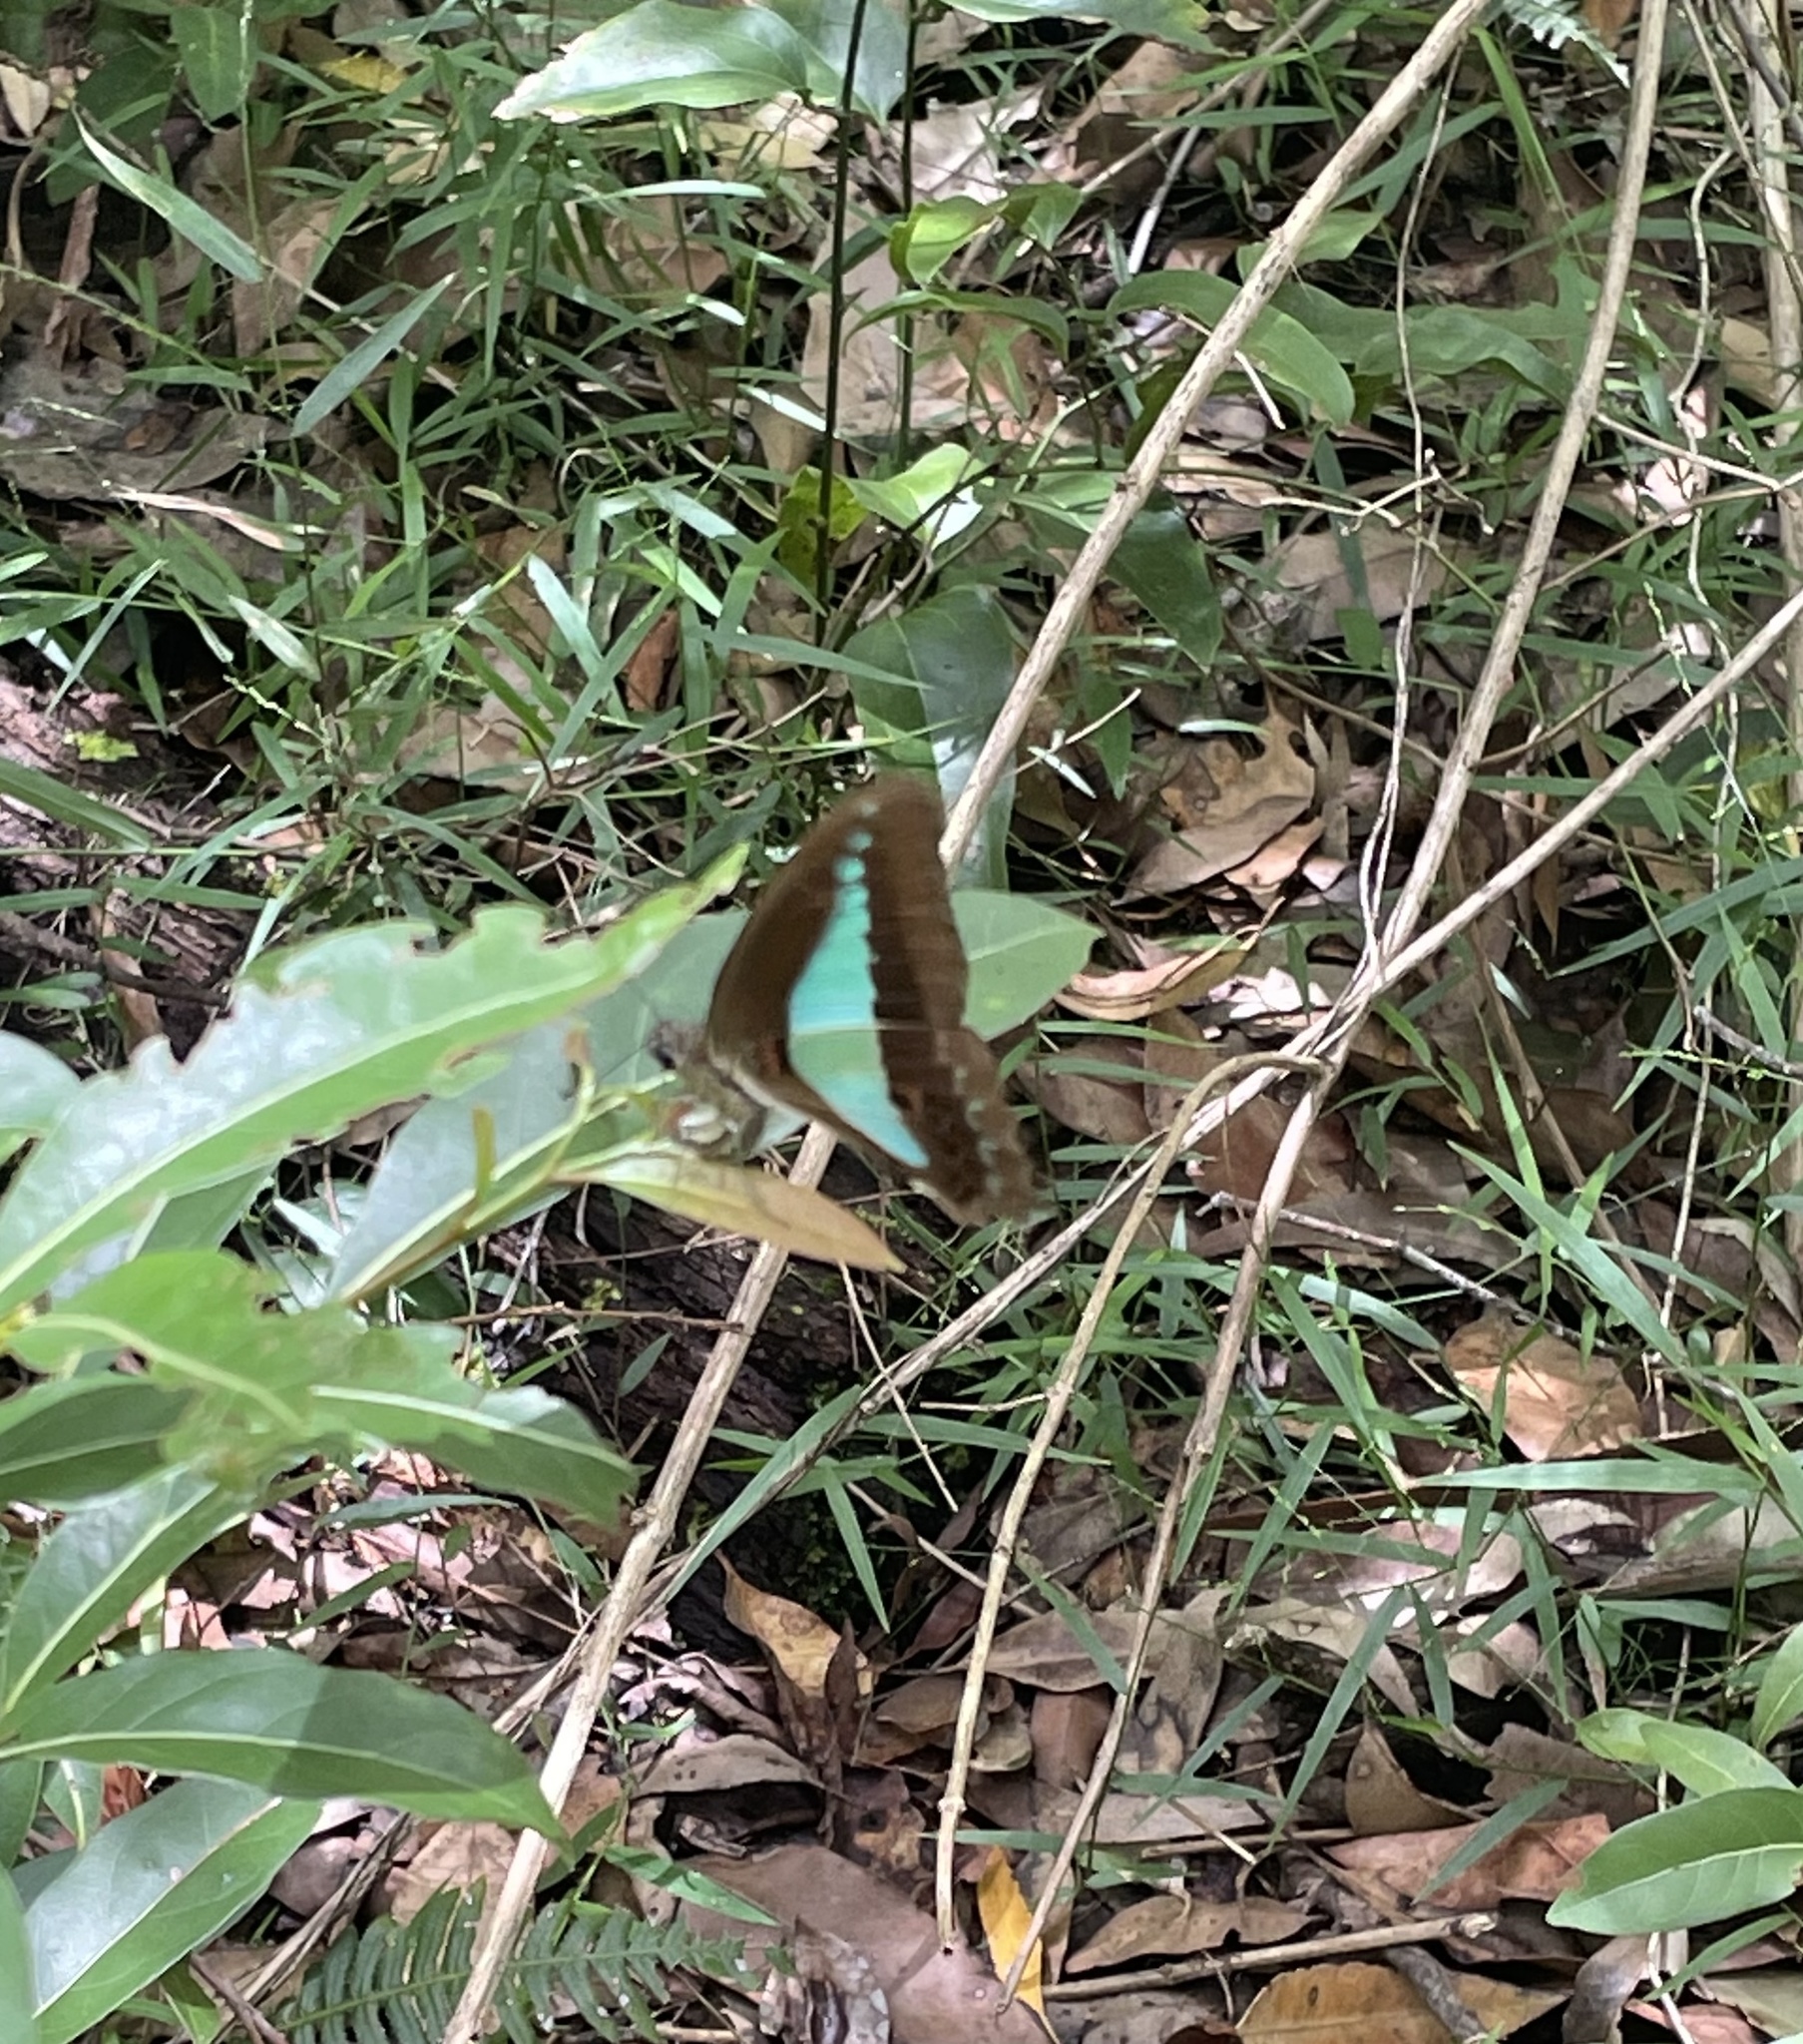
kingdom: Animalia
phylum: Arthropoda
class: Insecta
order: Lepidoptera
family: Papilionidae
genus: Graphium
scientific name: Graphium
